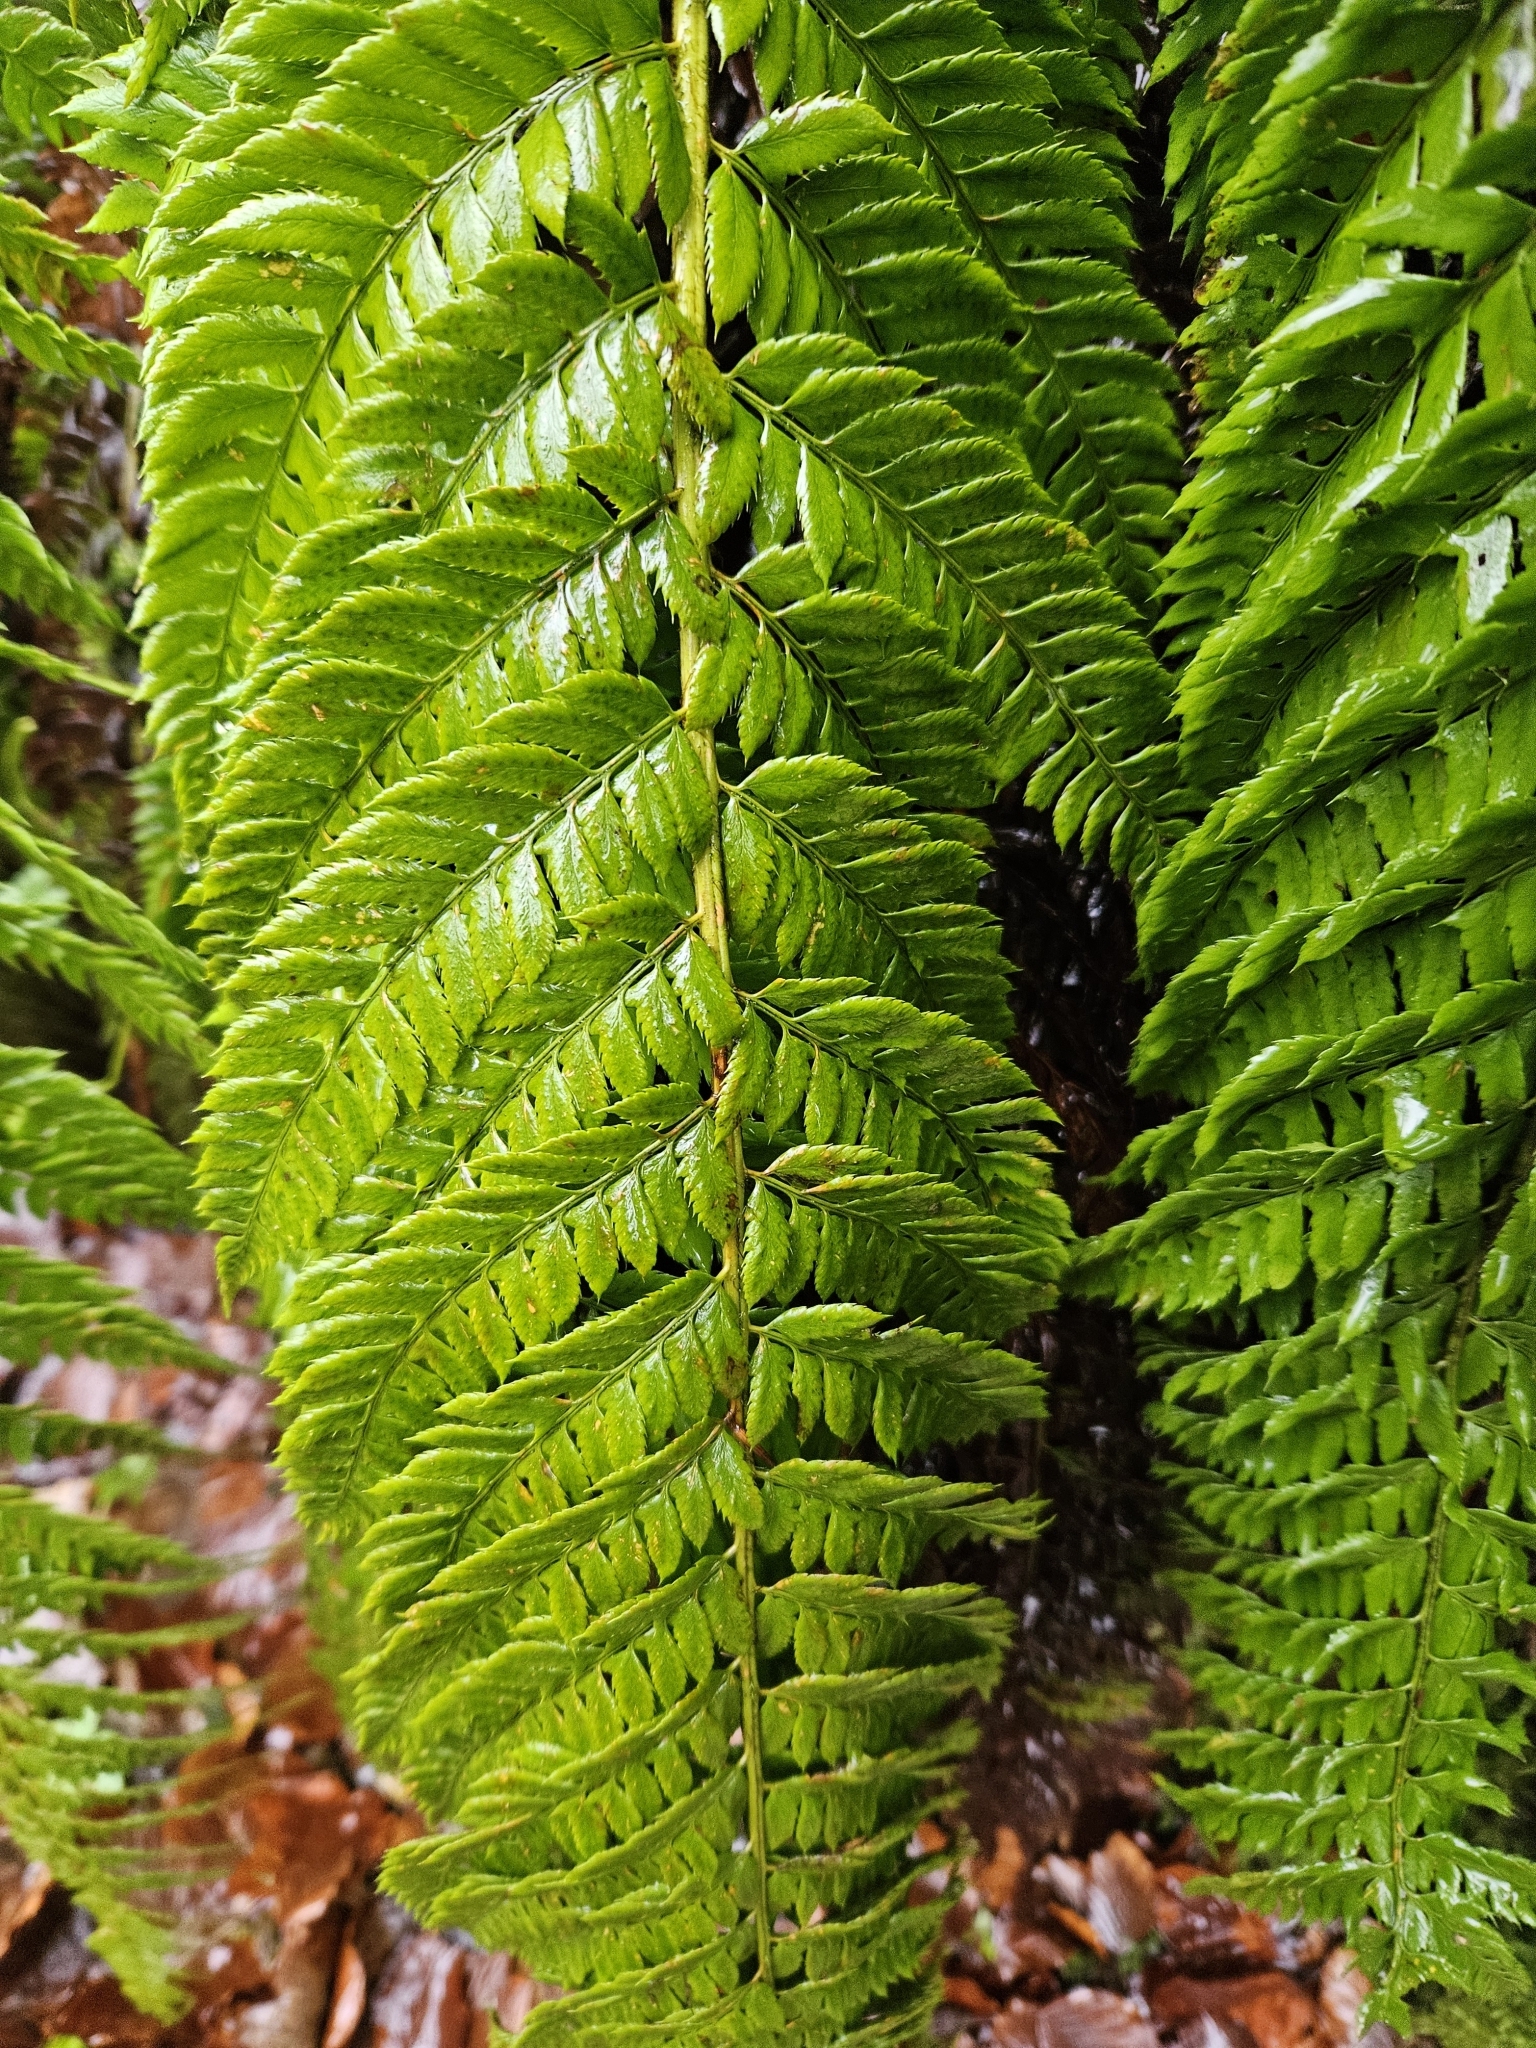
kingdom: Plantae
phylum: Tracheophyta
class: Polypodiopsida
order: Polypodiales
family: Dryopteridaceae
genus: Polystichum
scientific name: Polystichum aculeatum
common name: Hard shield-fern
